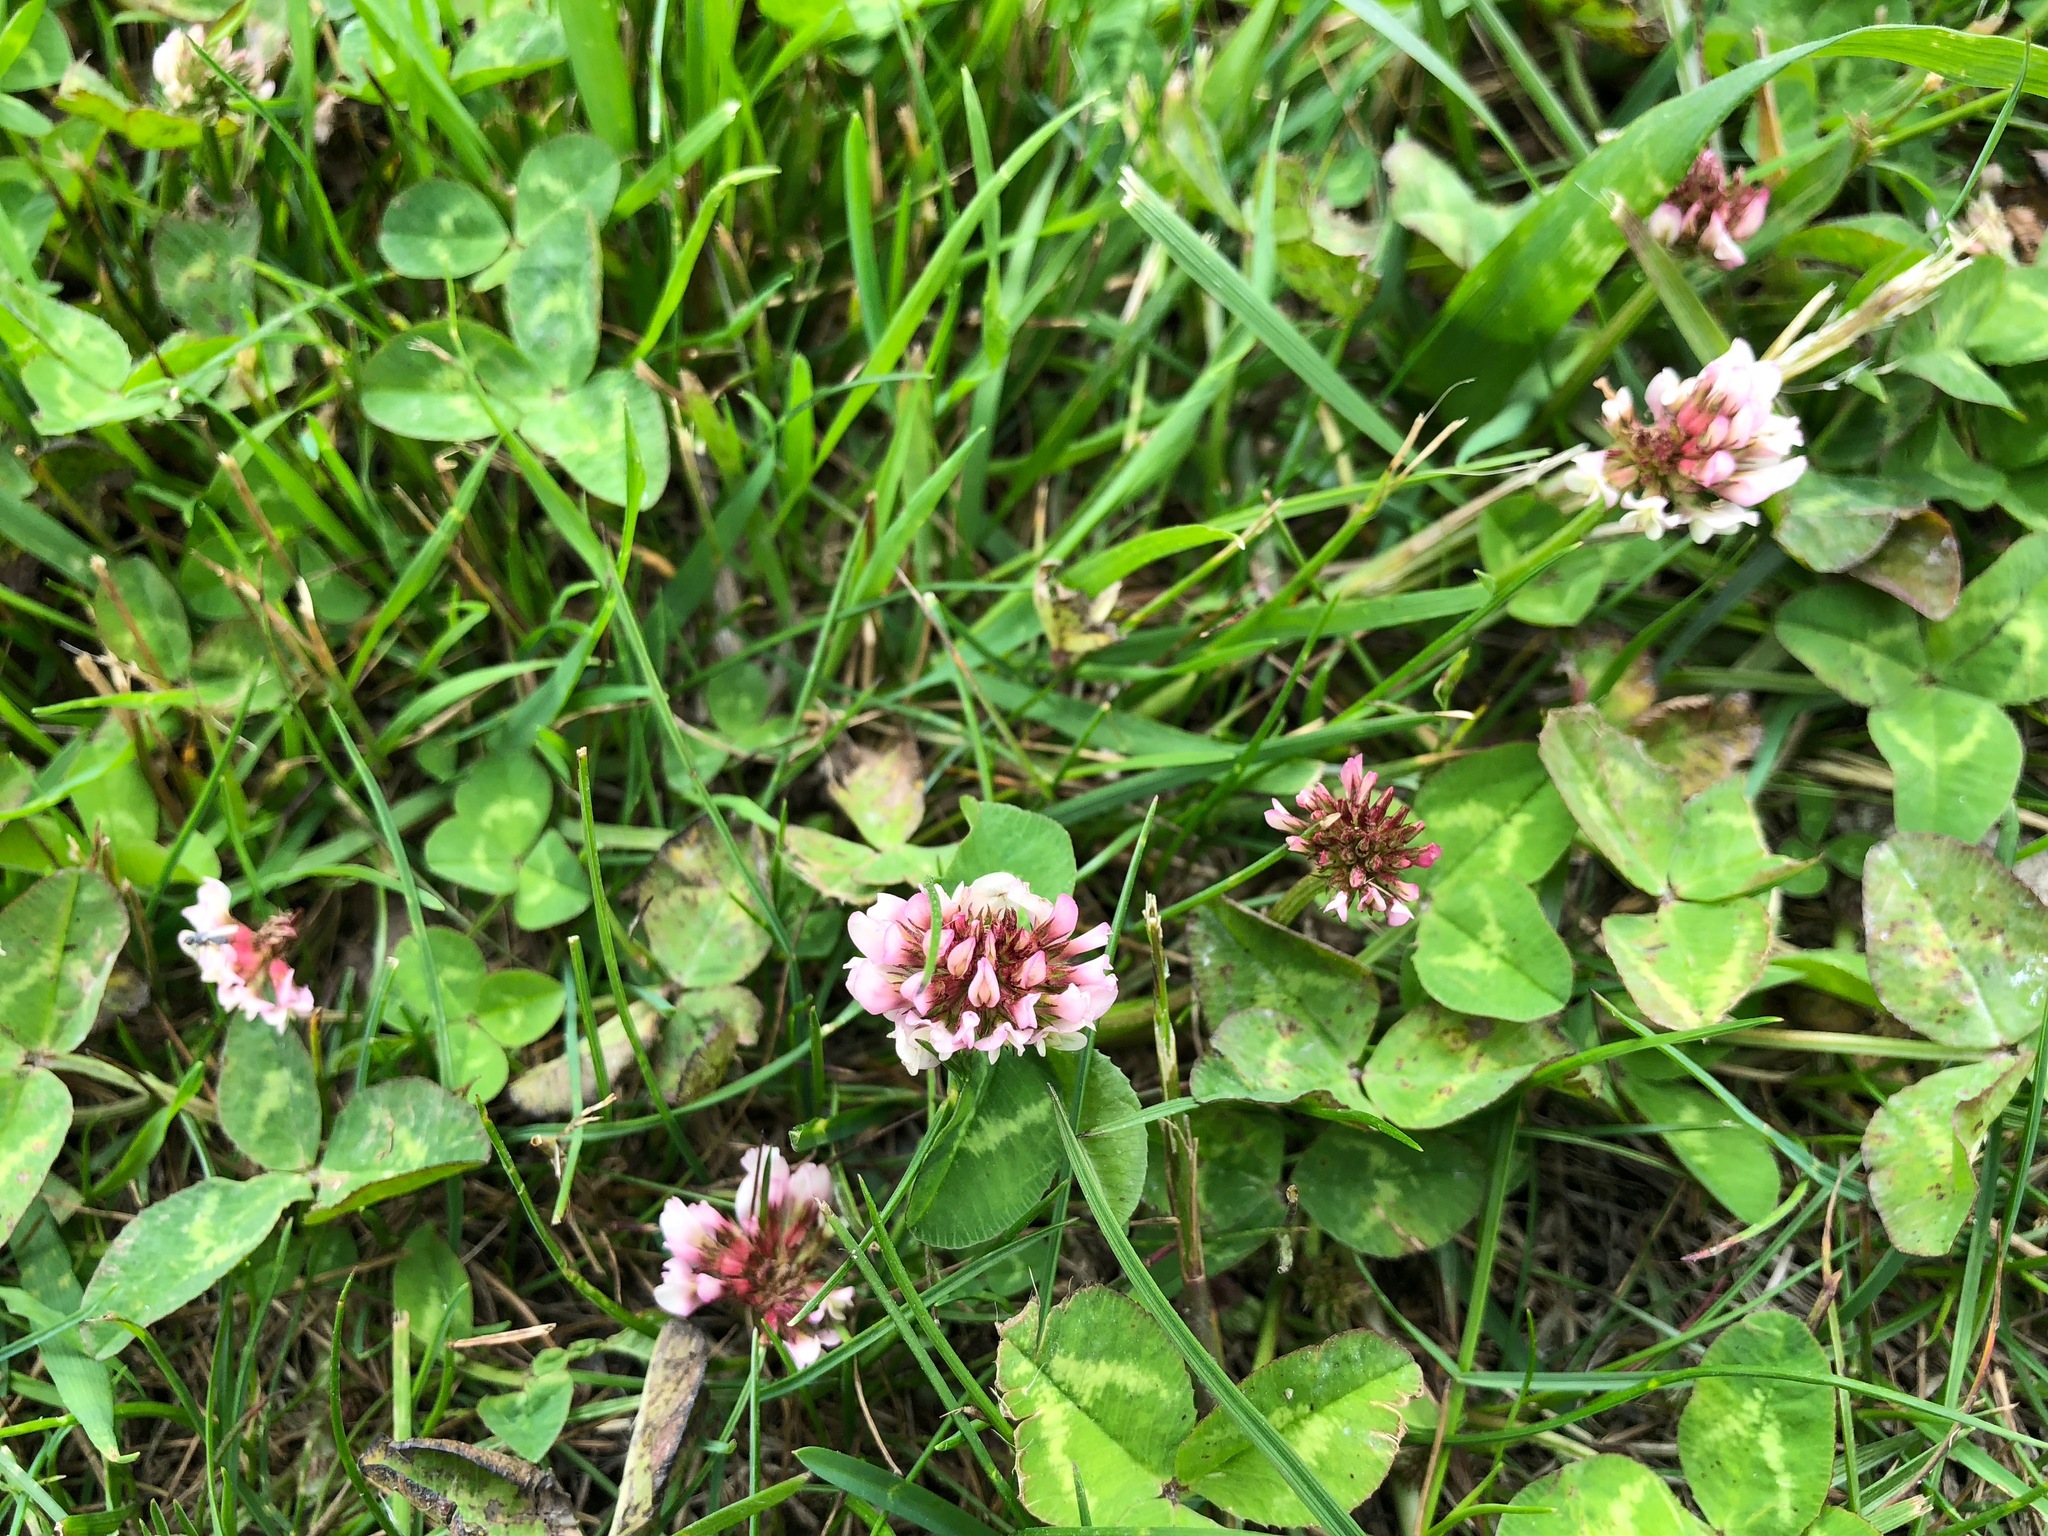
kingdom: Plantae
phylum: Tracheophyta
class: Magnoliopsida
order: Fabales
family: Fabaceae
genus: Trifolium
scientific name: Trifolium repens
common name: White clover
